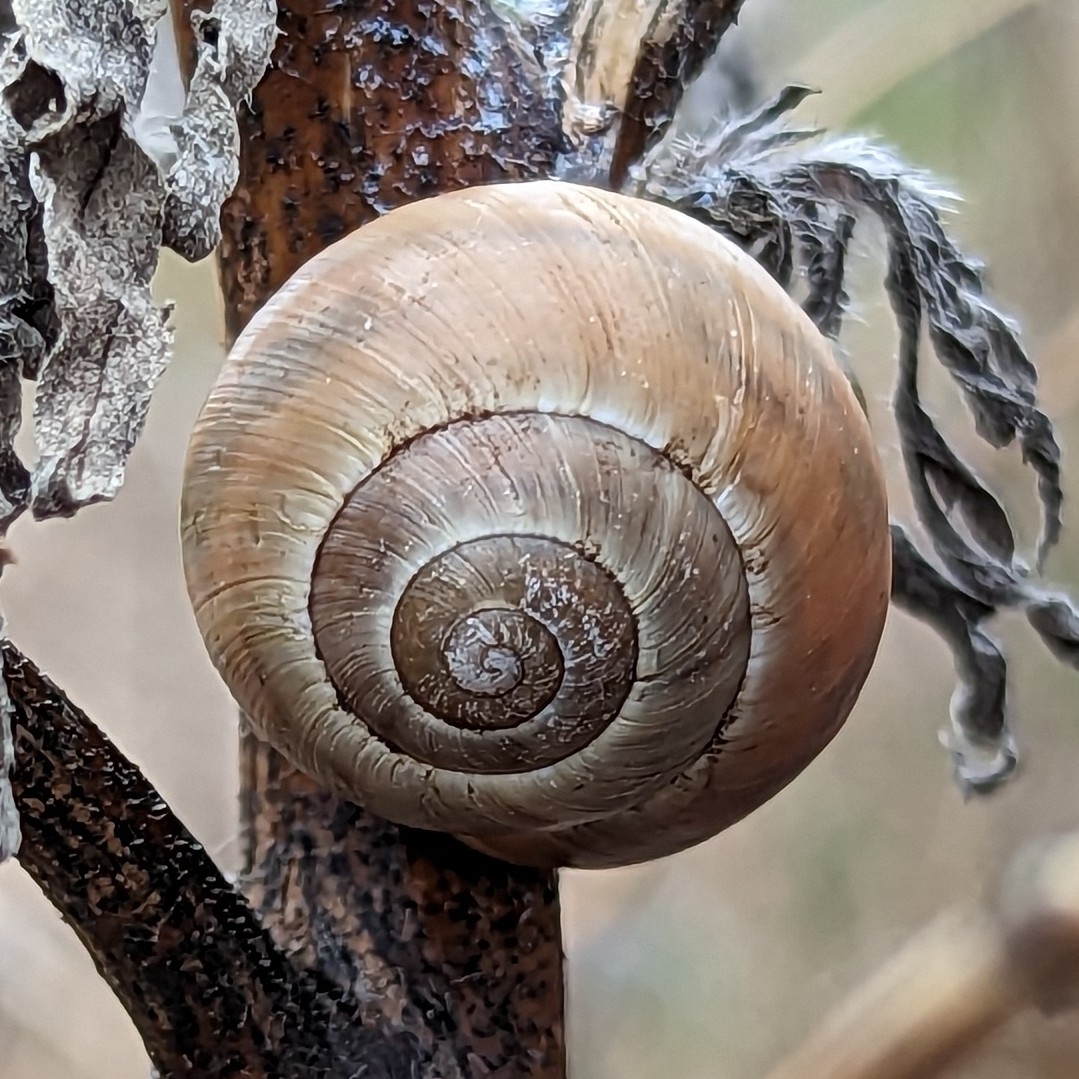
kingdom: Animalia
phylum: Mollusca
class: Gastropoda
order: Stylommatophora
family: Helicidae
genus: Cepaea
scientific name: Cepaea nemoralis
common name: Grovesnail
